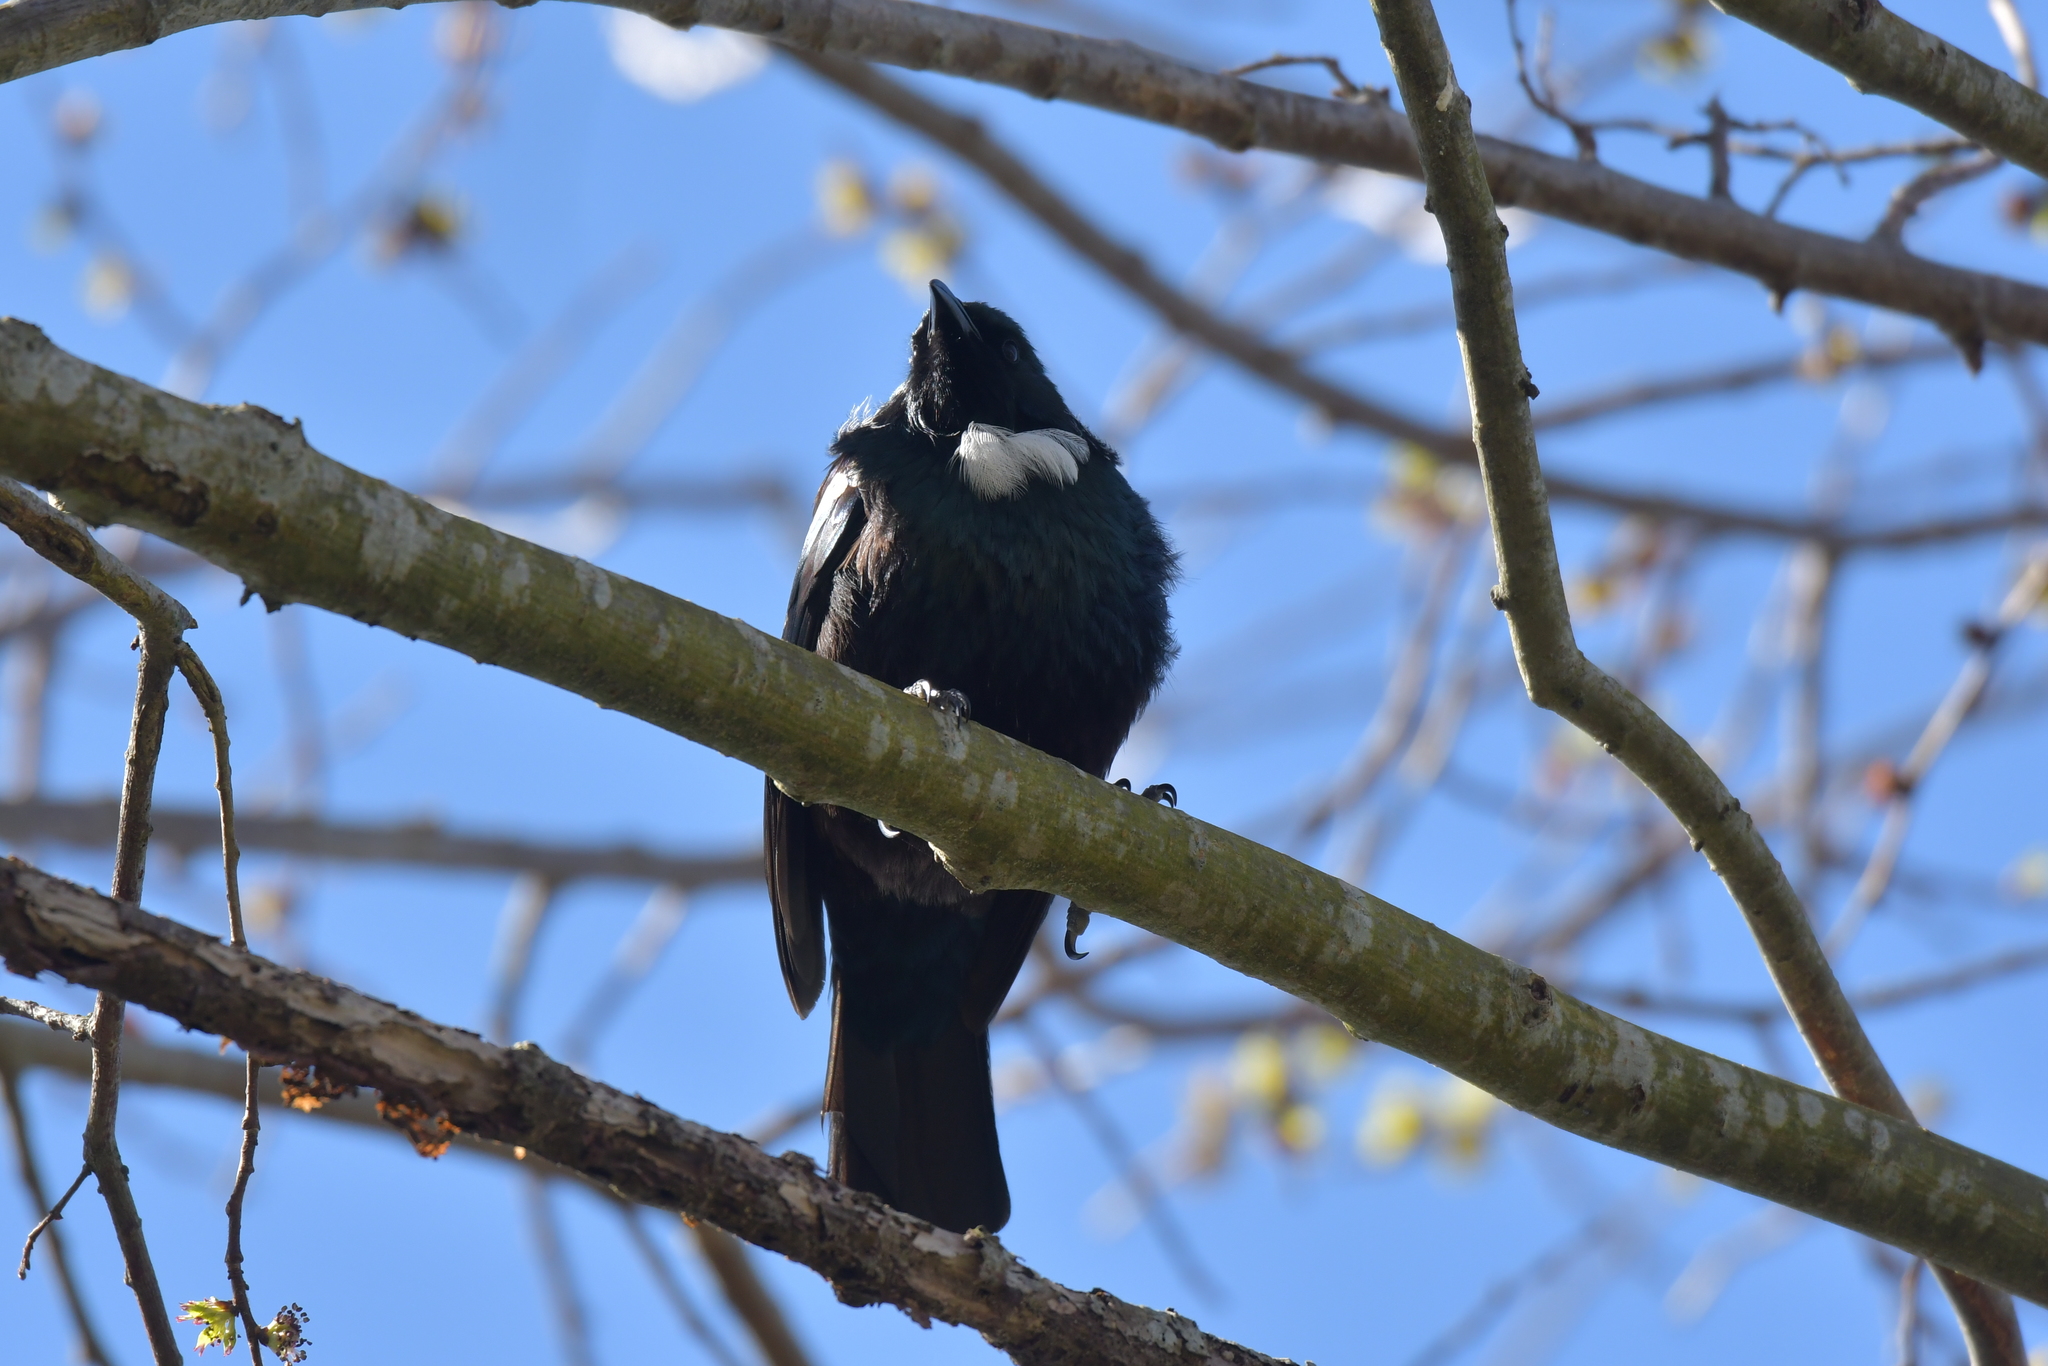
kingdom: Animalia
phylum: Chordata
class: Aves
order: Passeriformes
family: Meliphagidae
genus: Prosthemadera
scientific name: Prosthemadera novaeseelandiae
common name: Tui
